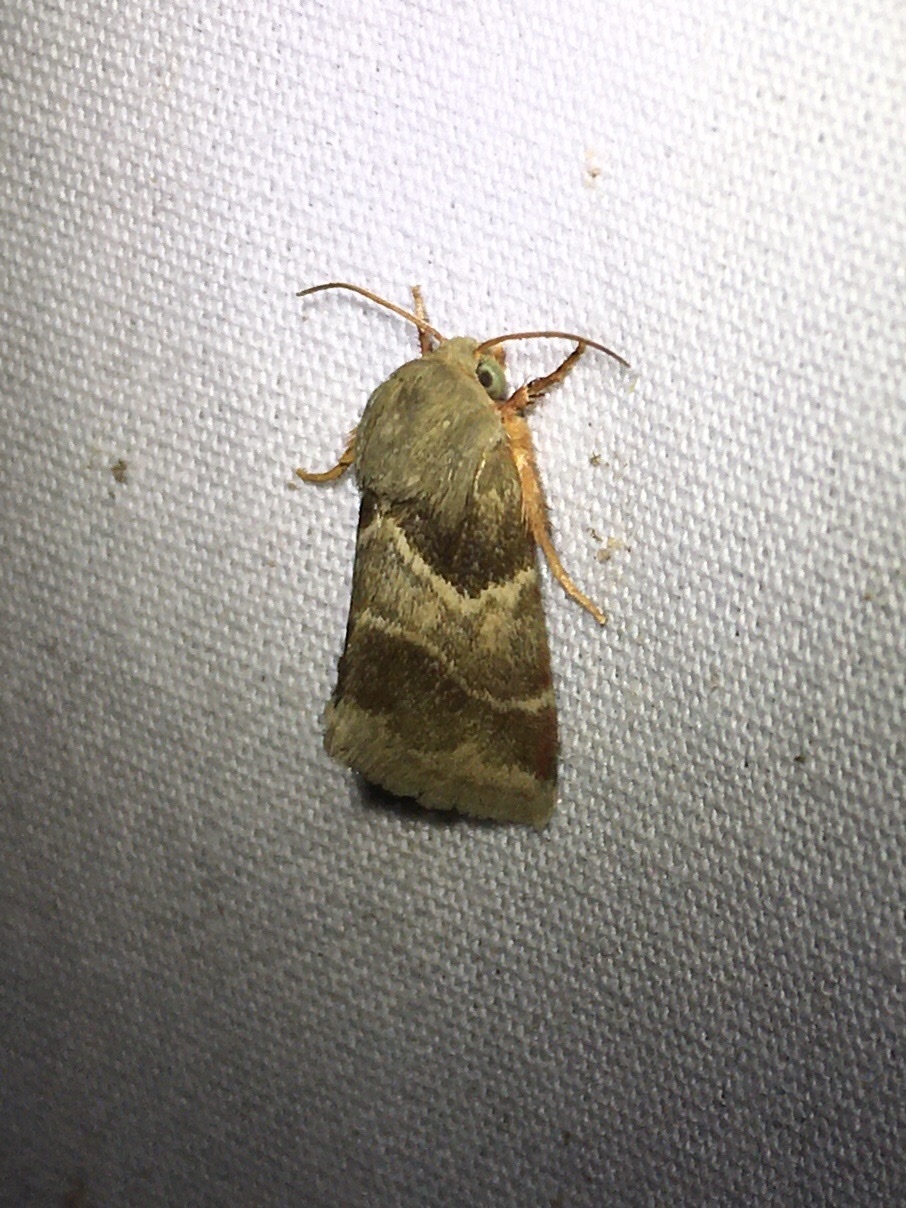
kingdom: Animalia
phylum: Arthropoda
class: Insecta
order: Lepidoptera
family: Noctuidae
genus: Schinia
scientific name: Schinia lynx
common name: Lynx flower moth
